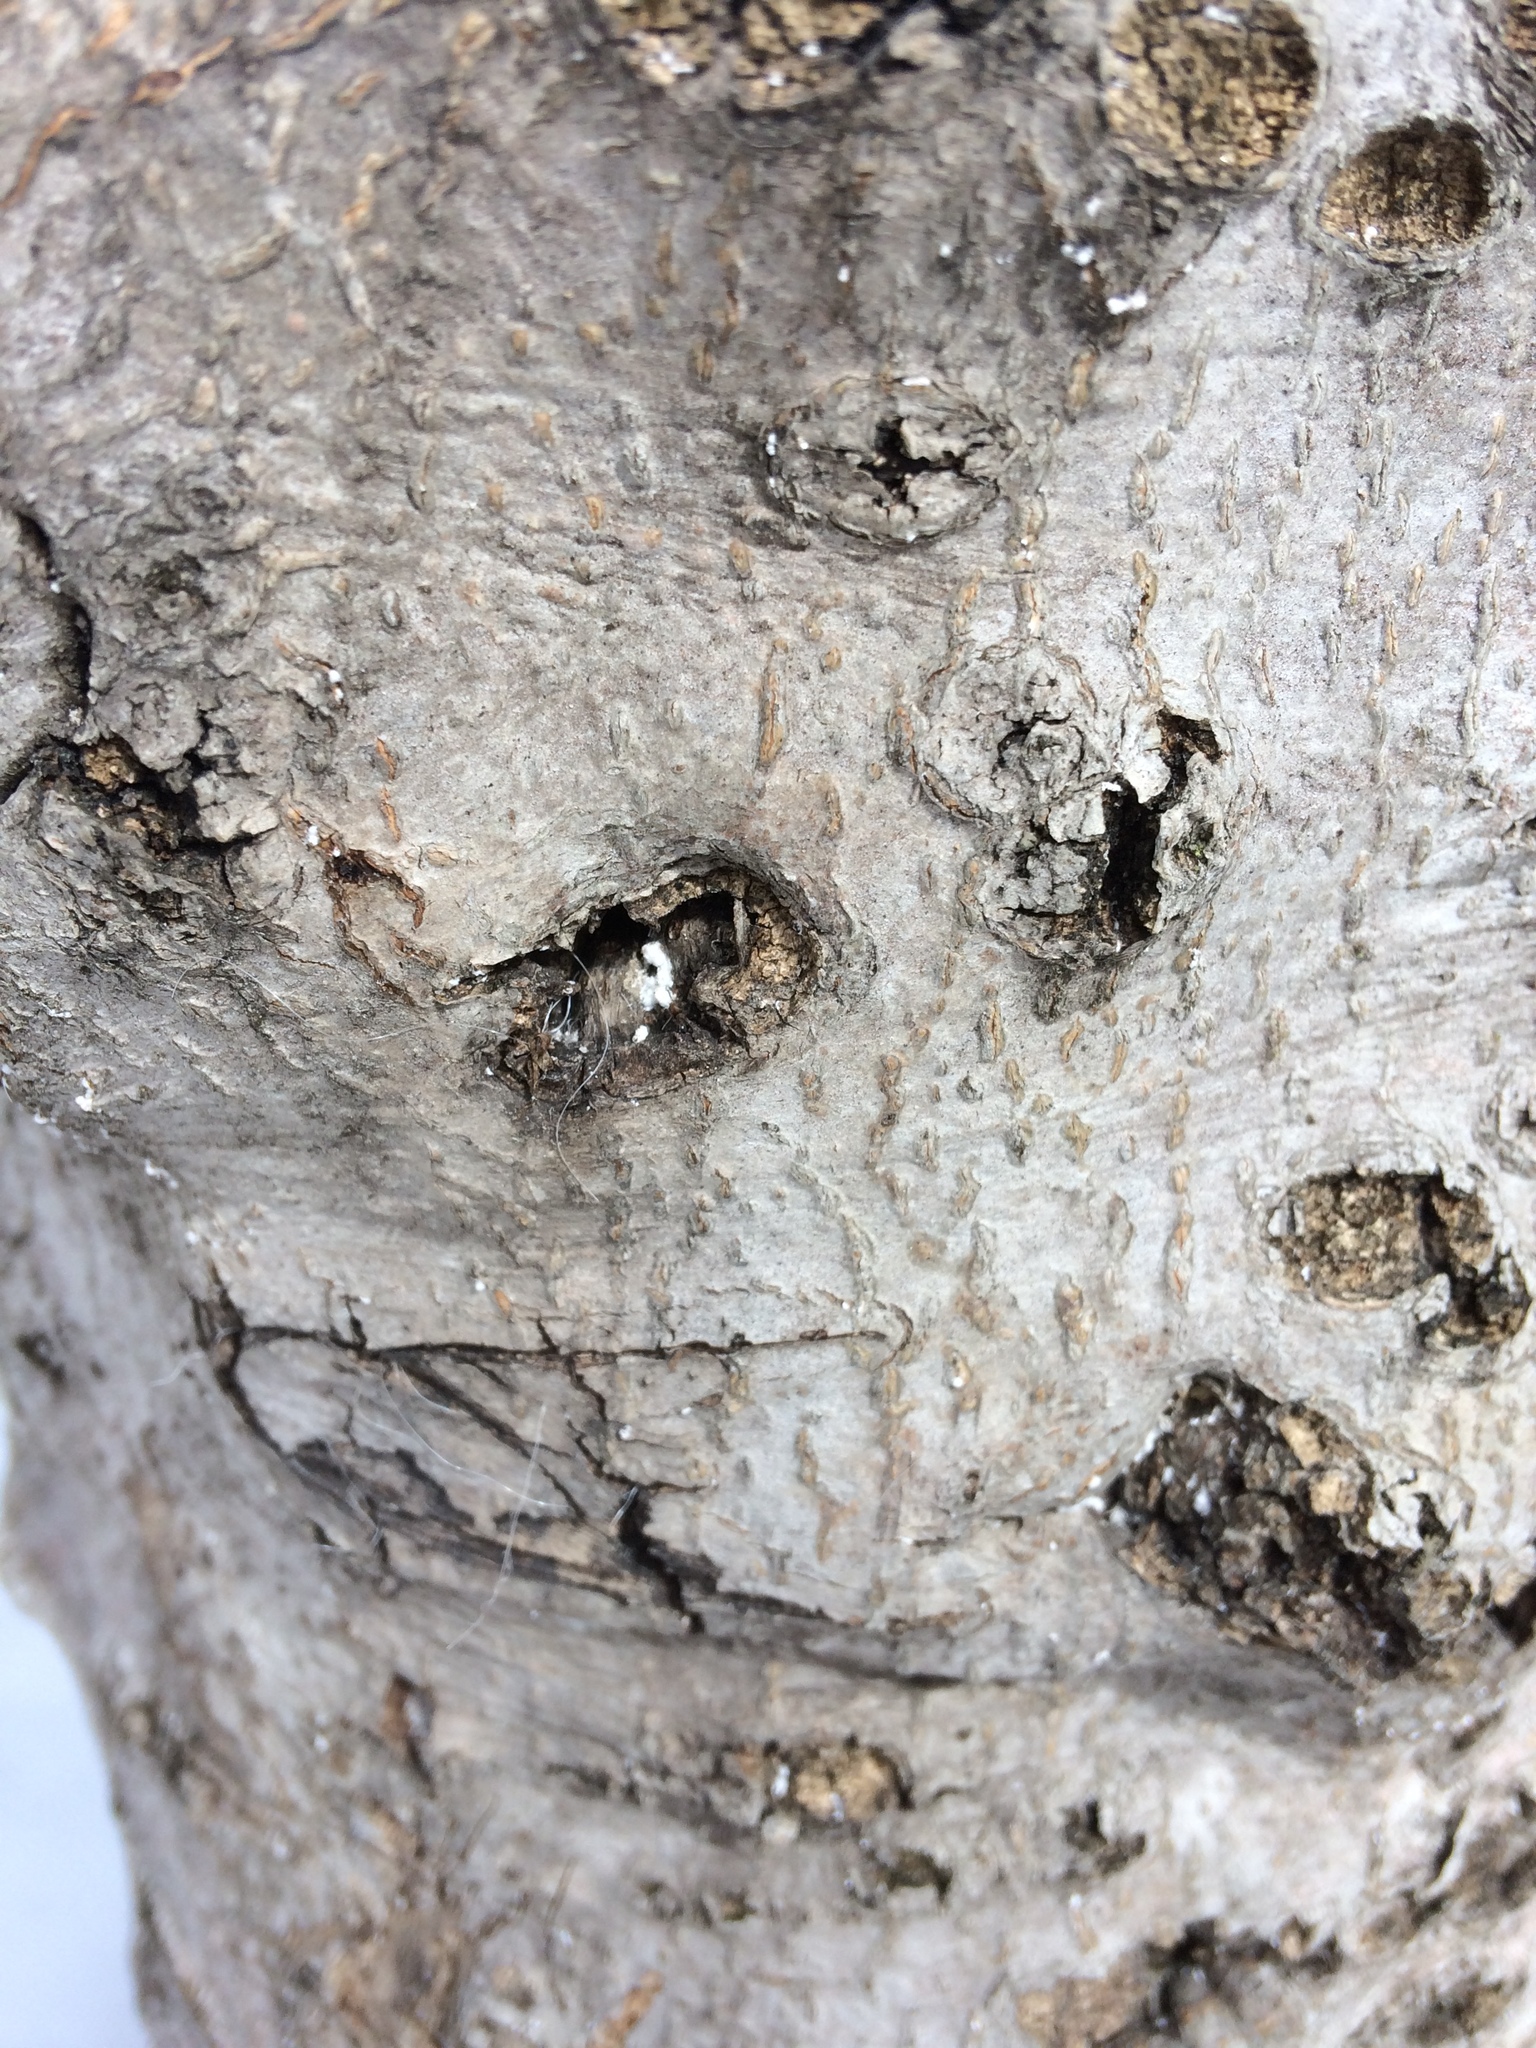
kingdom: Animalia
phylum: Arthropoda
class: Insecta
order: Hemiptera
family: Eriococcidae
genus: Cryptococcus
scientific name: Cryptococcus fagisuga
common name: Beech scale
